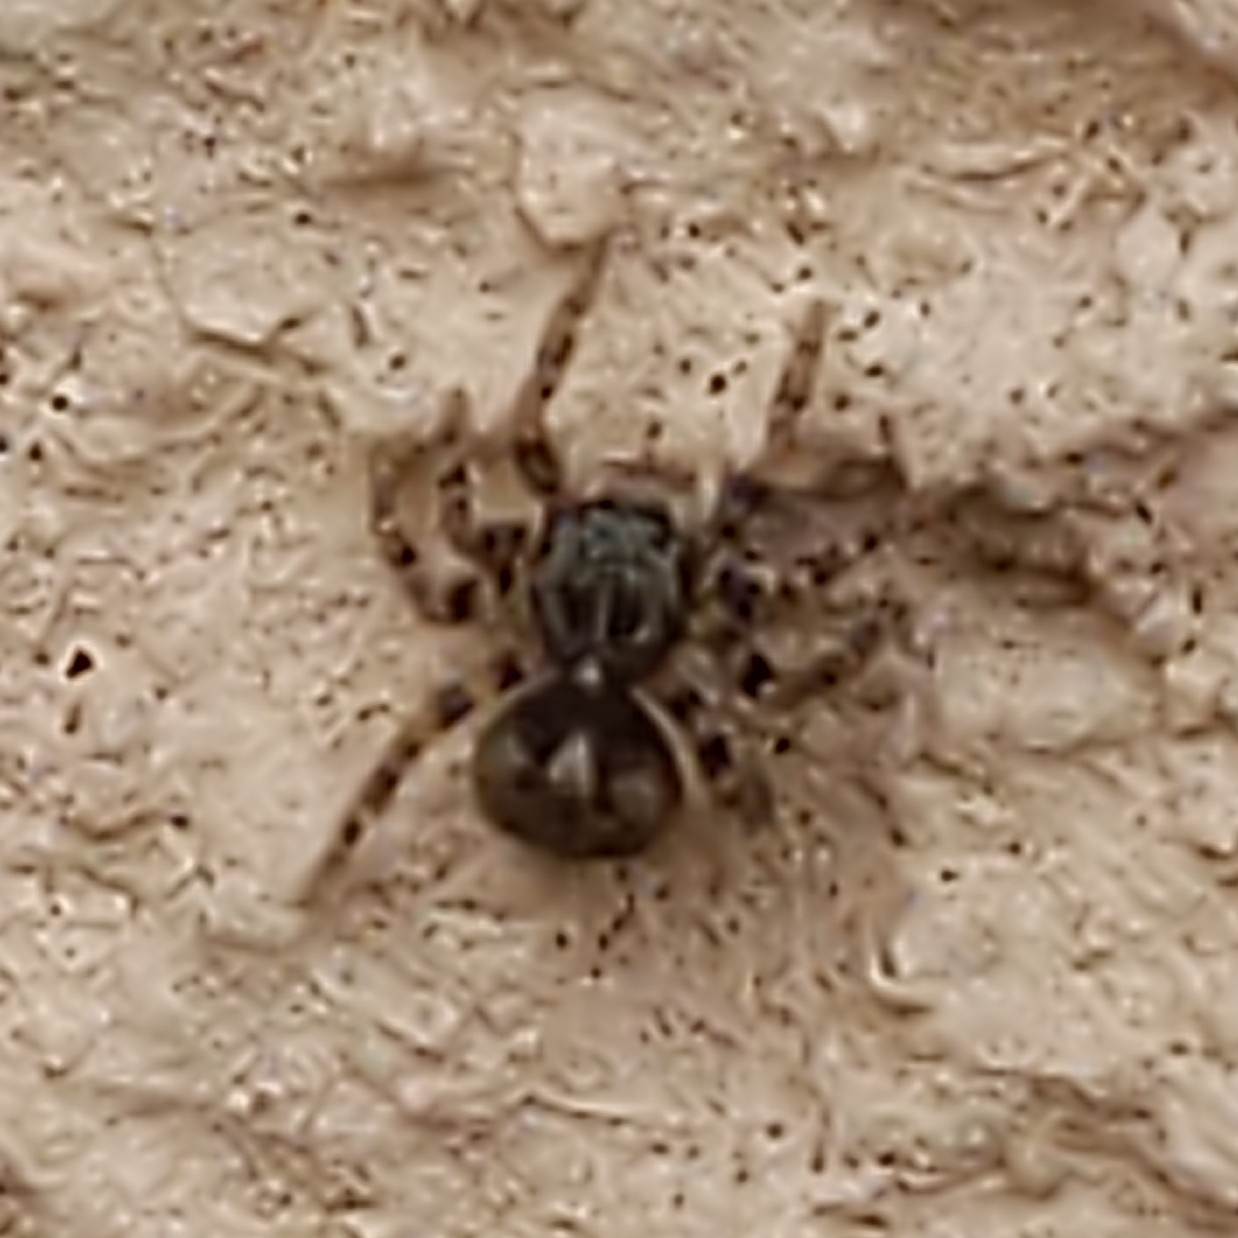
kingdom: Animalia
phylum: Arthropoda
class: Arachnida
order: Araneae
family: Salticidae
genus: Pseudeuophrys
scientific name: Pseudeuophrys erratica
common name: Jumping spider
